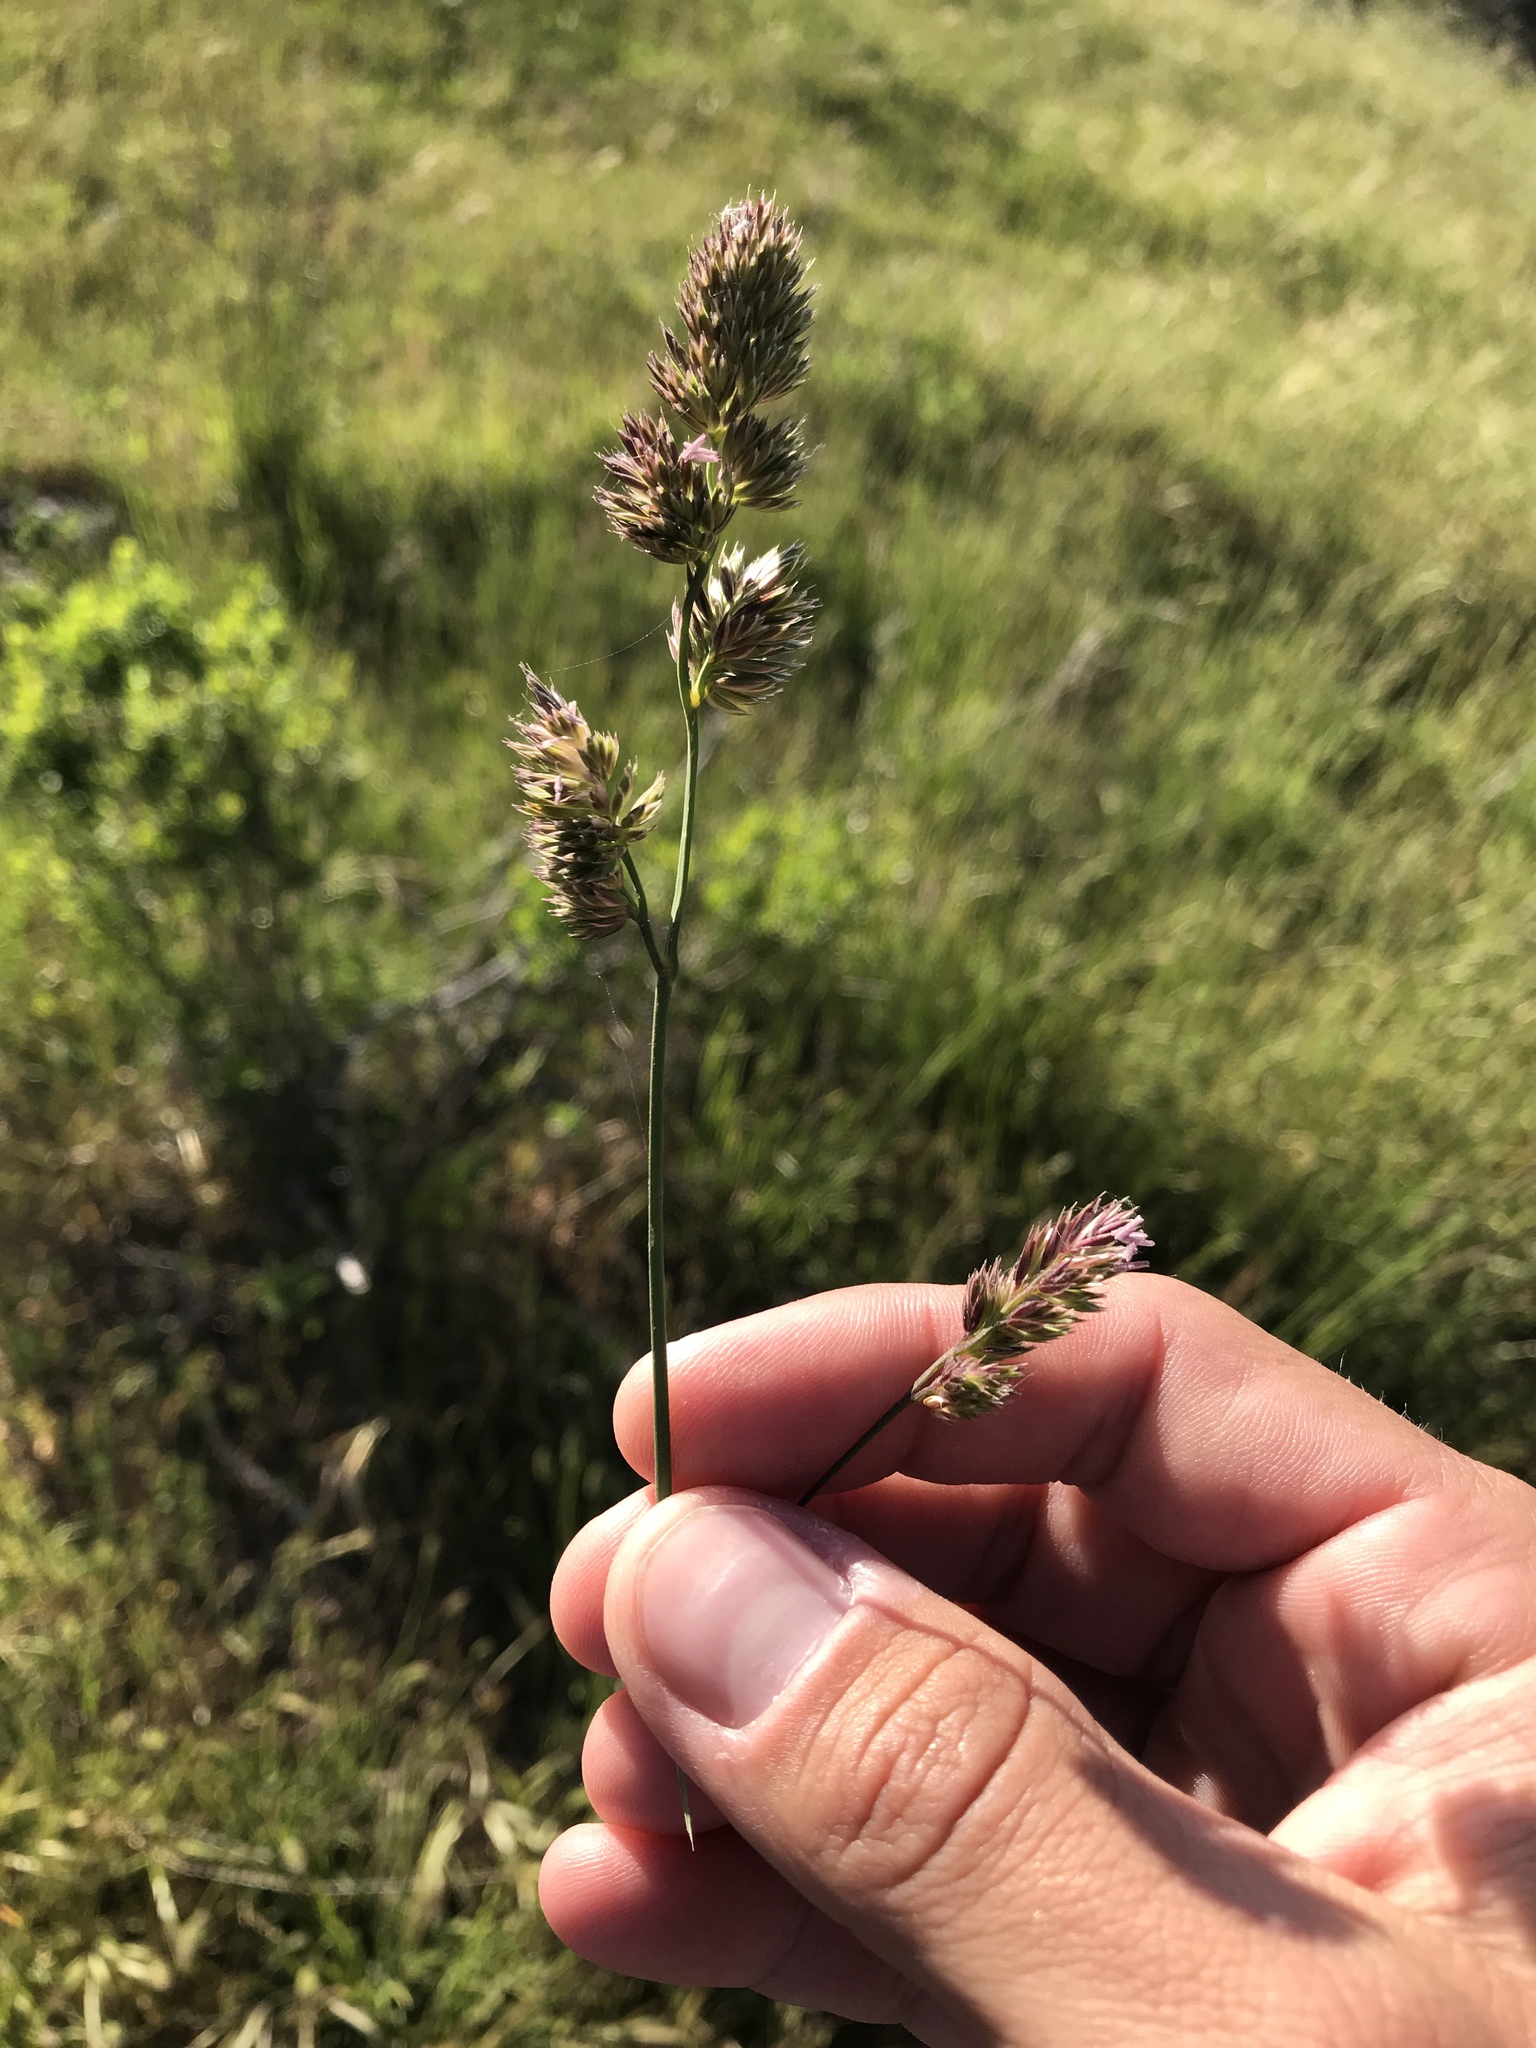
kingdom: Plantae
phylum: Tracheophyta
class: Liliopsida
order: Poales
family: Poaceae
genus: Dactylis
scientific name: Dactylis glomerata
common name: Orchardgrass
